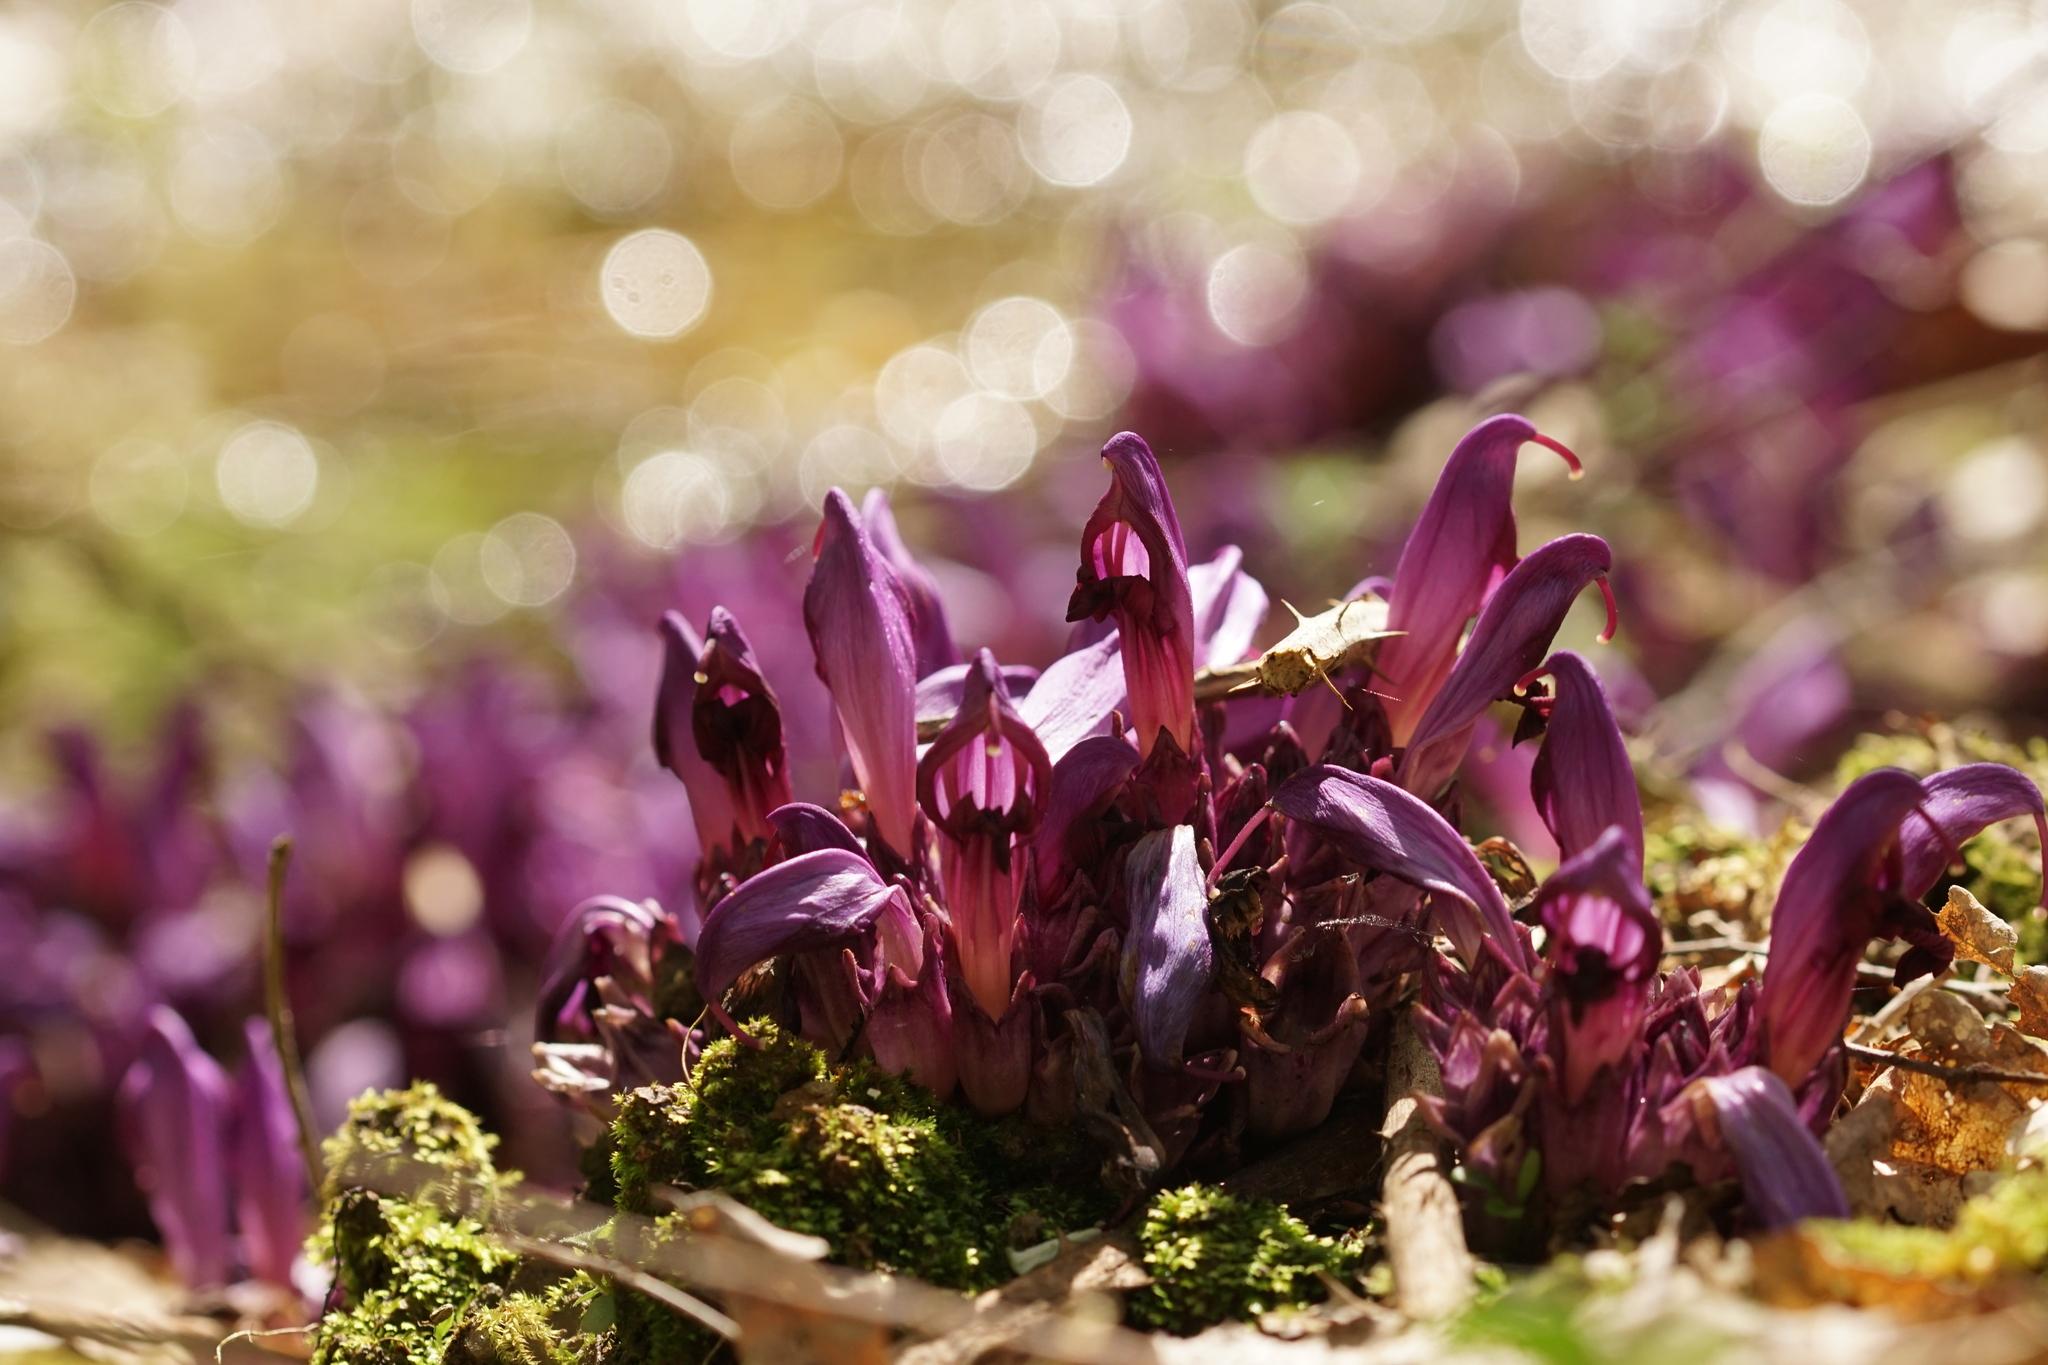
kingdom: Plantae
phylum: Tracheophyta
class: Magnoliopsida
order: Lamiales
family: Orobanchaceae
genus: Lathraea
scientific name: Lathraea clandestina
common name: Purple toothwort
